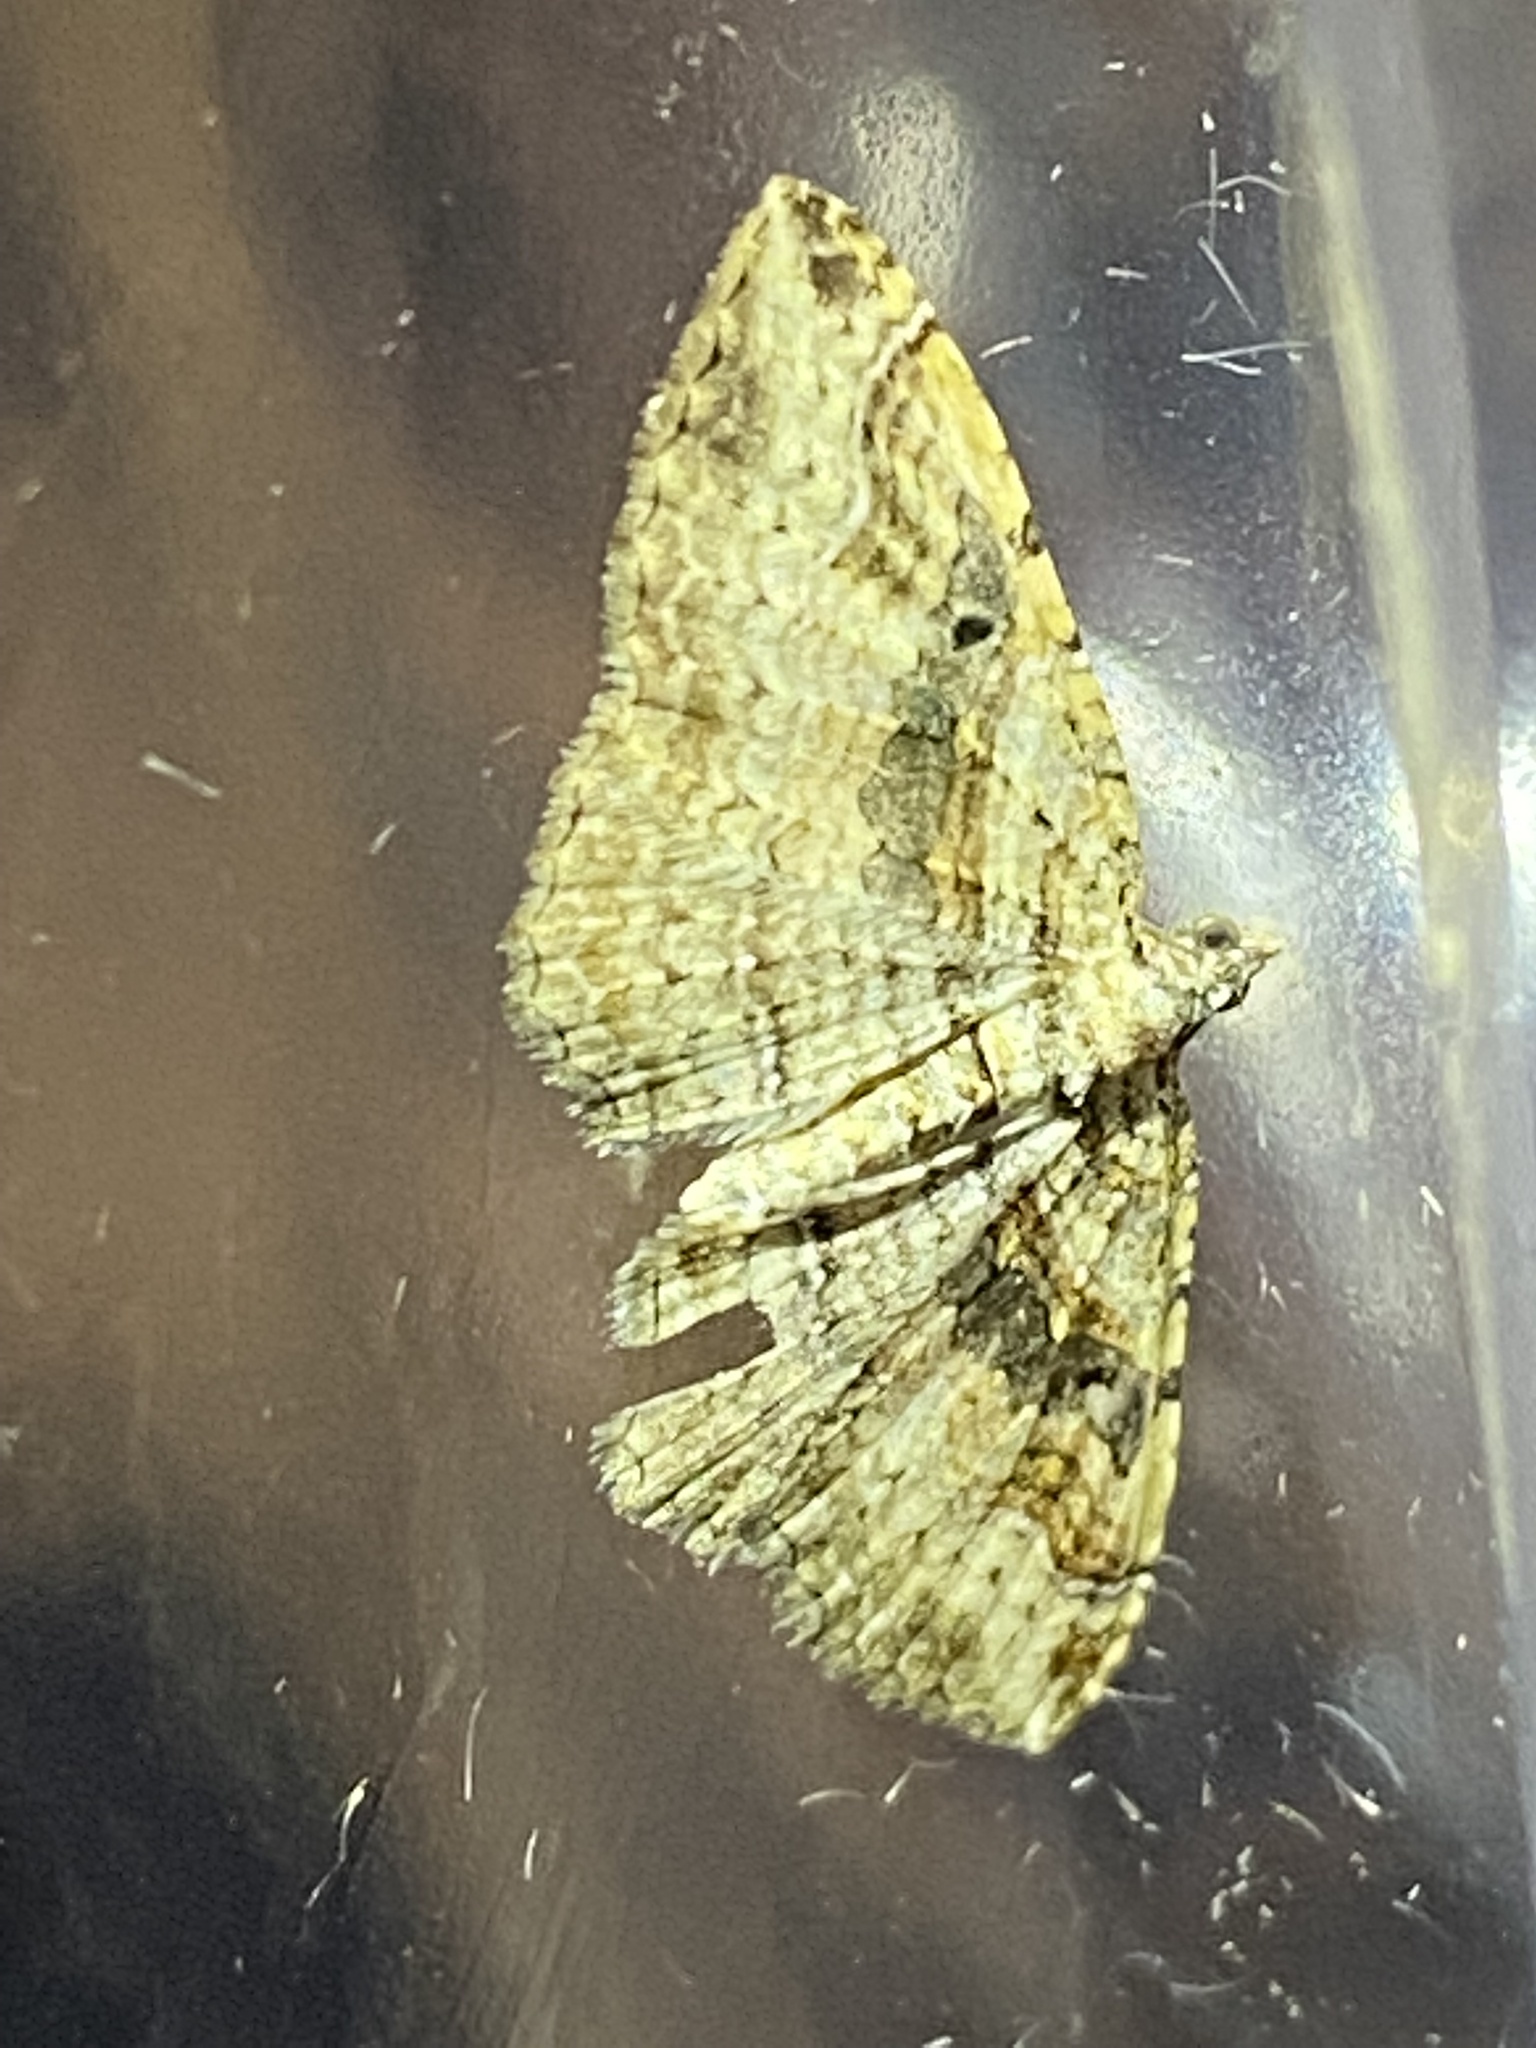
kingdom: Animalia
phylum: Arthropoda
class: Insecta
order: Lepidoptera
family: Geometridae
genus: Costaconvexa
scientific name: Costaconvexa centrostrigaria
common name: Bent-line carpet
